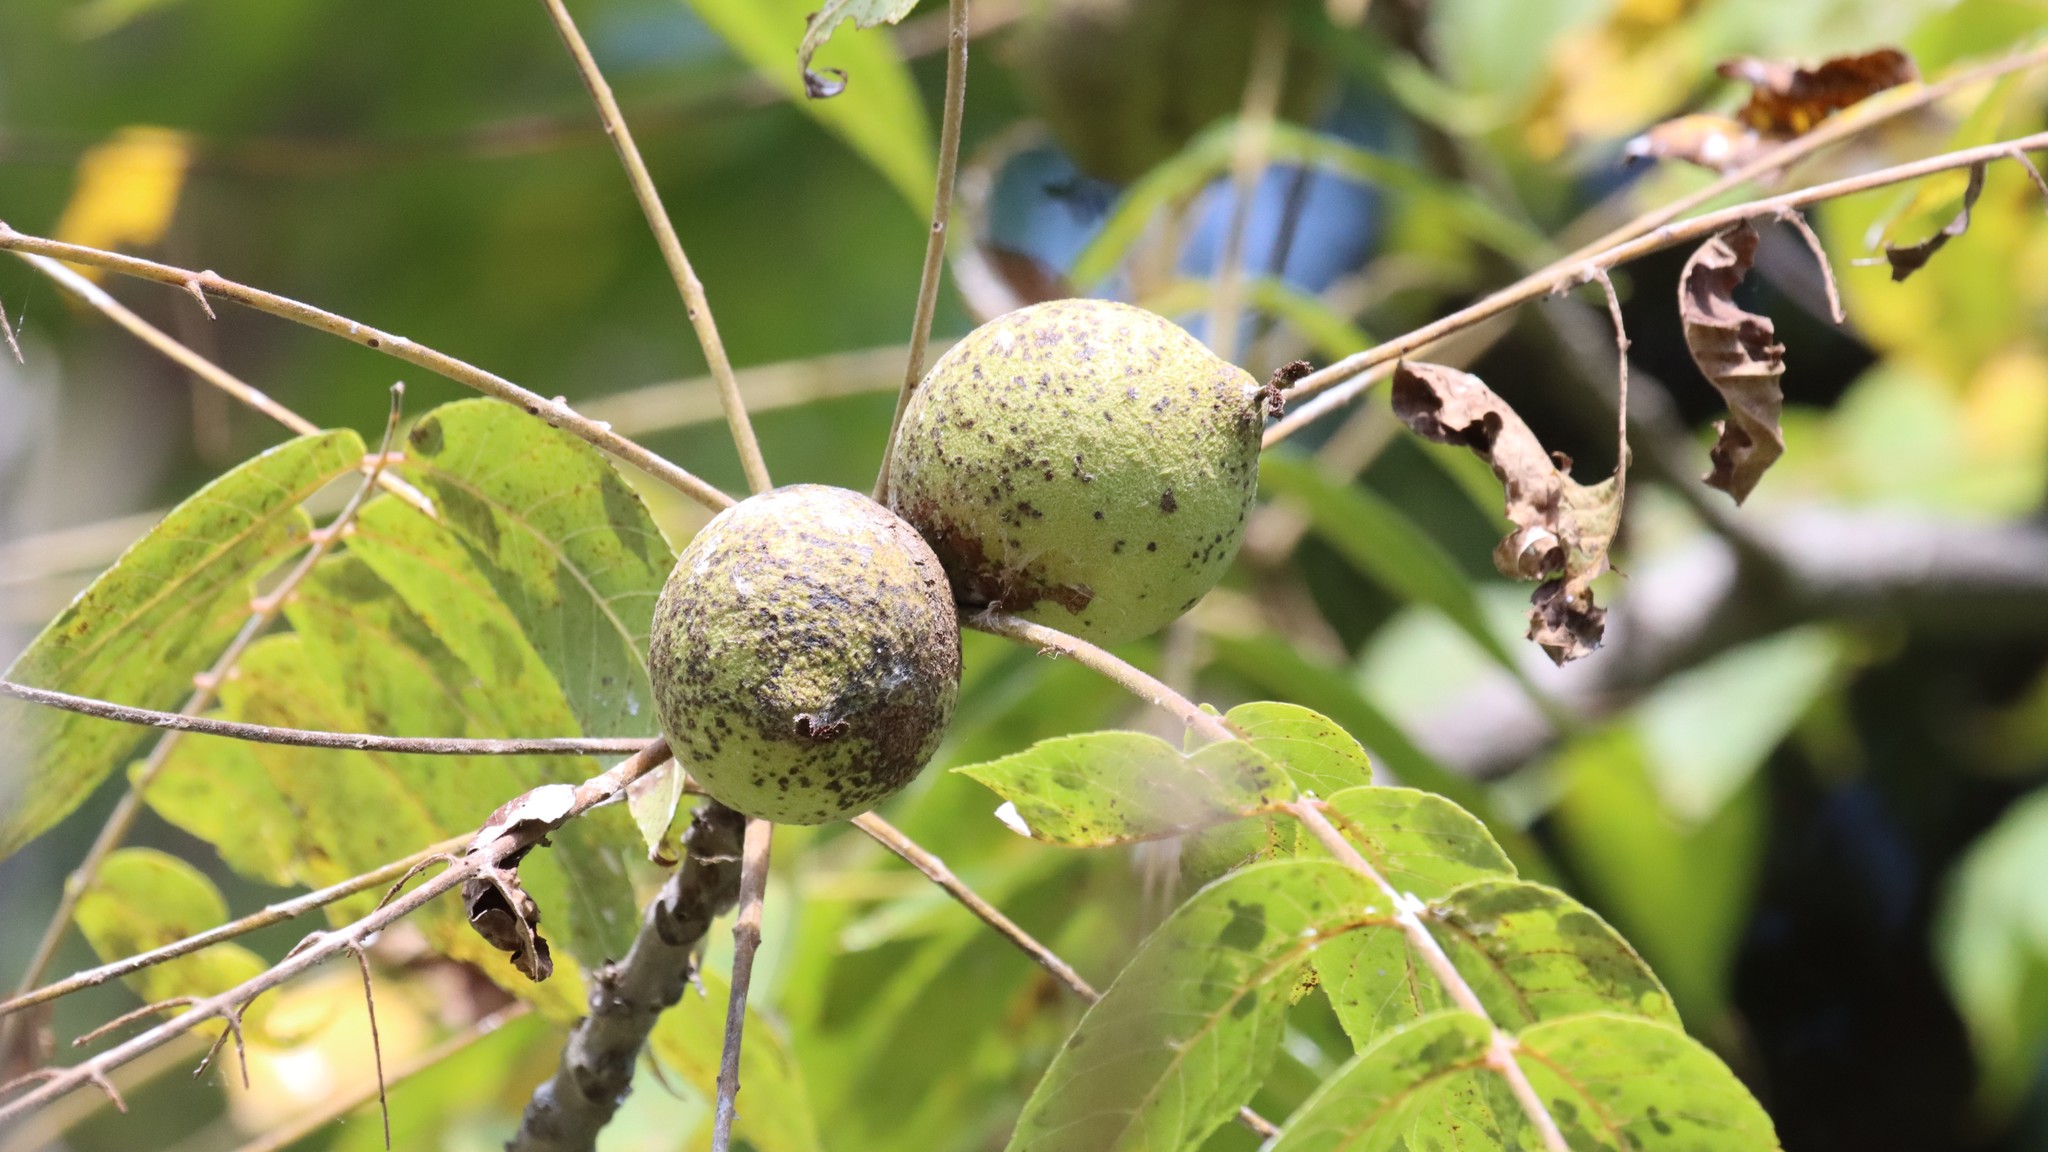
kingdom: Plantae
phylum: Tracheophyta
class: Magnoliopsida
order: Fagales
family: Juglandaceae
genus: Juglans
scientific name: Juglans nigra
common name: Black walnut
